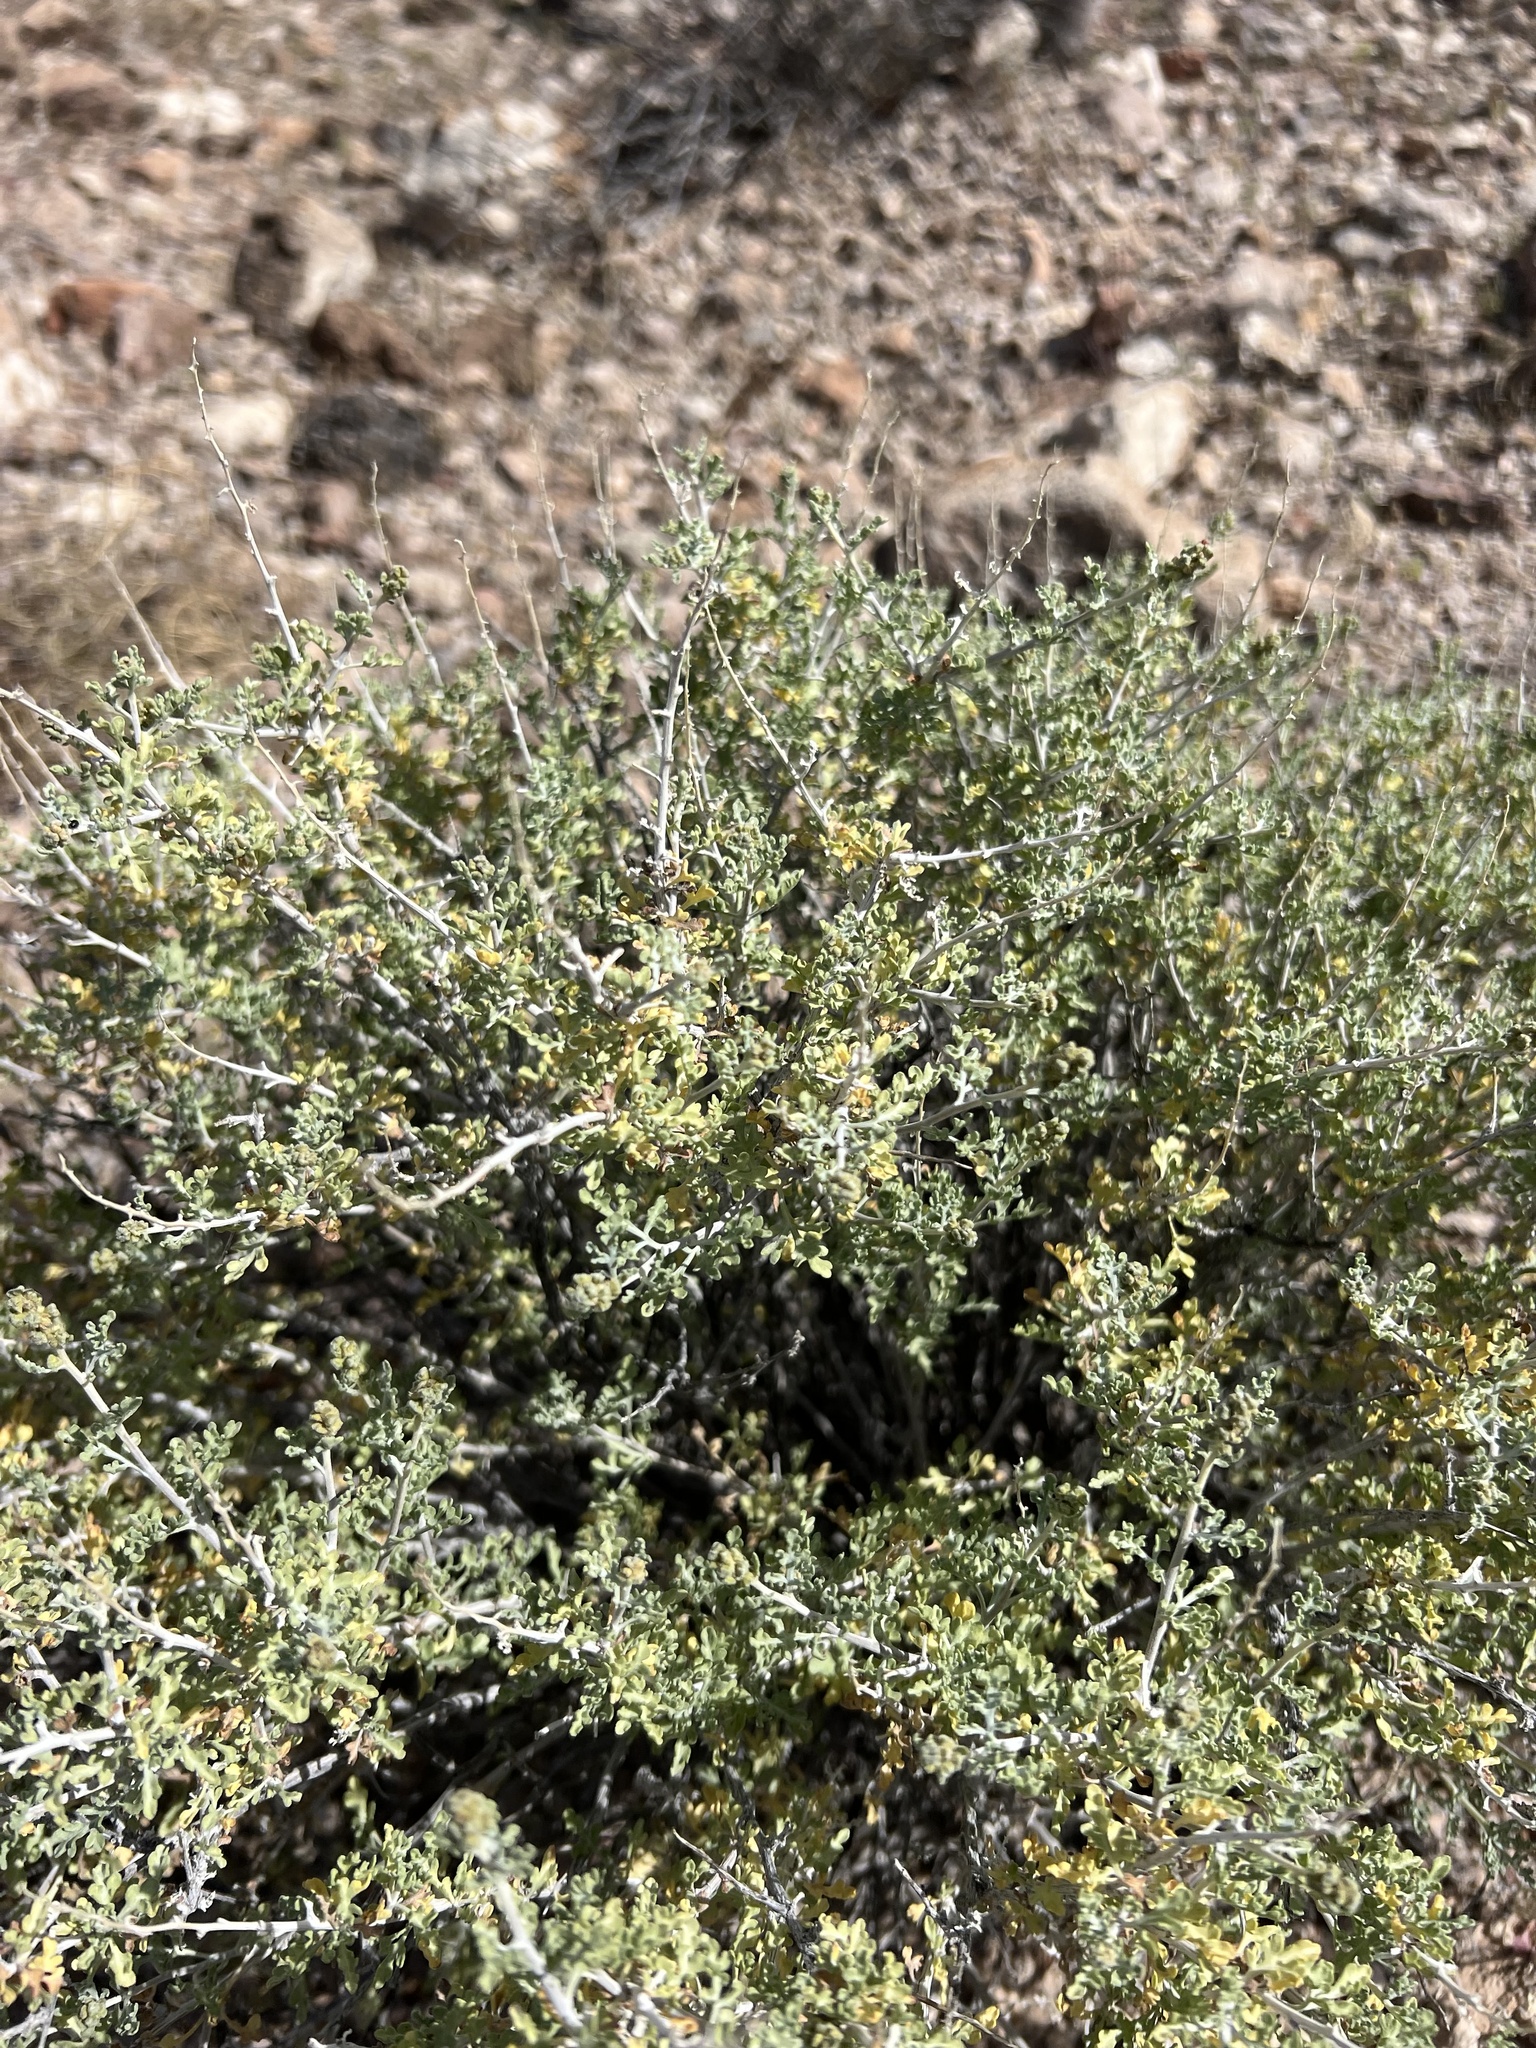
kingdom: Plantae
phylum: Tracheophyta
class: Magnoliopsida
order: Asterales
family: Asteraceae
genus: Ambrosia
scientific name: Ambrosia dumosa
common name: Bur-sage
